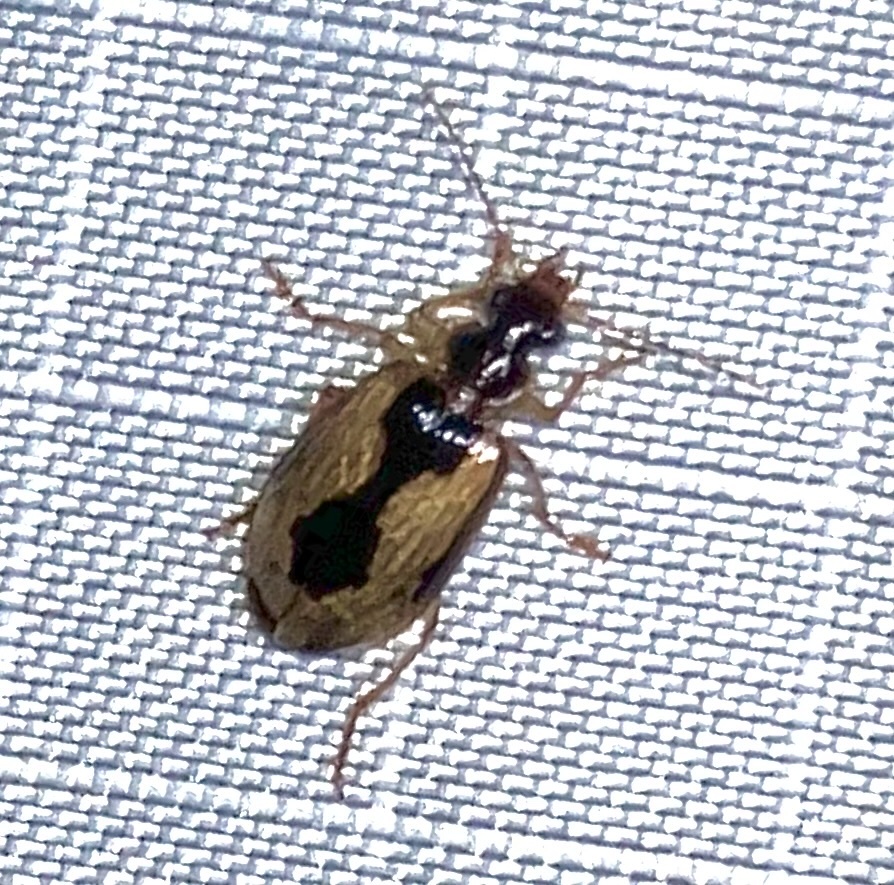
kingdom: Animalia
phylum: Arthropoda
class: Insecta
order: Coleoptera
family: Carabidae
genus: Lebia
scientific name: Lebia fuscata
